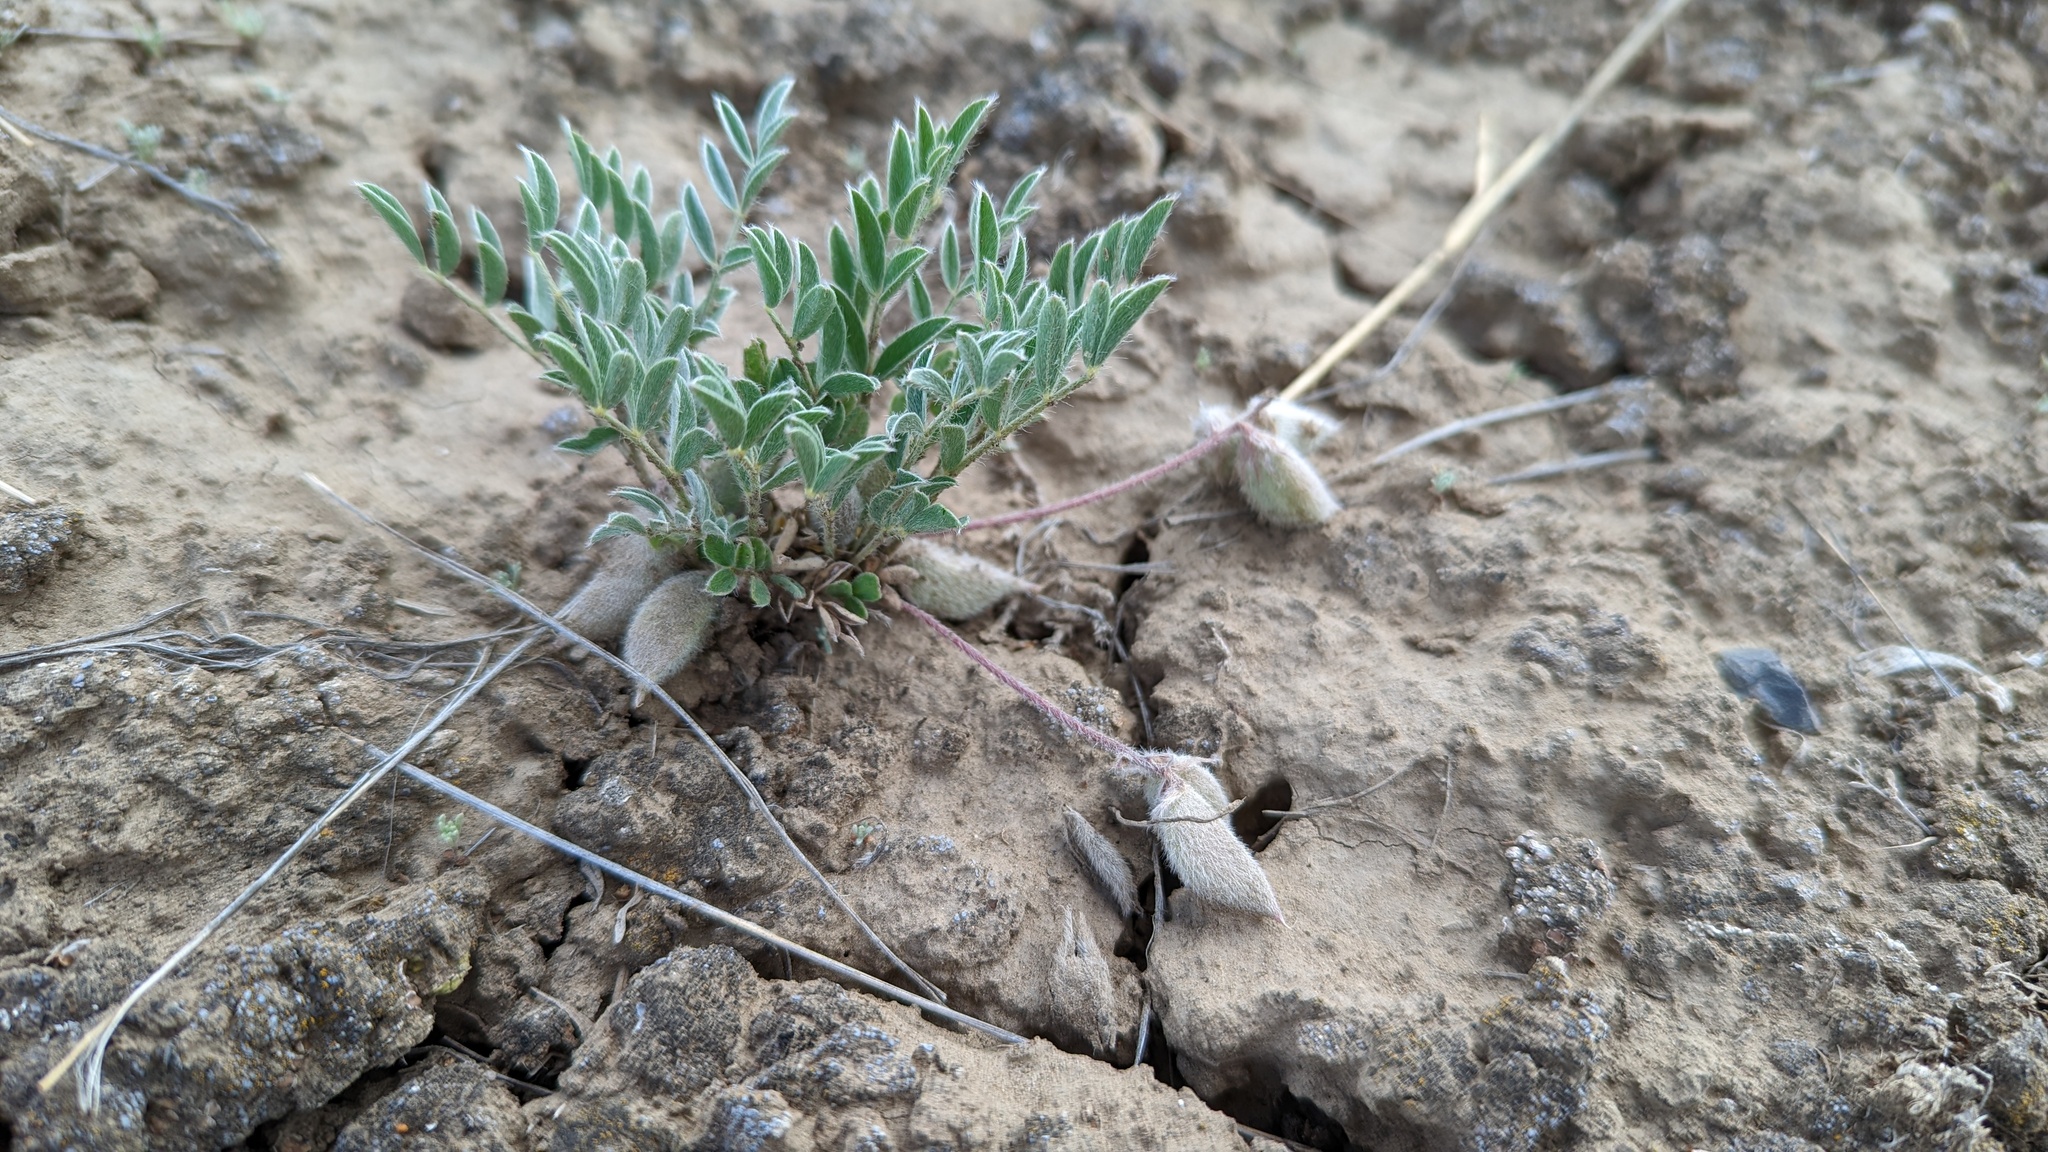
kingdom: Plantae
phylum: Tracheophyta
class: Magnoliopsida
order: Fabales
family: Fabaceae
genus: Astragalus
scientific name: Astragalus lotiflorus
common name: Lotus milk-vetch
